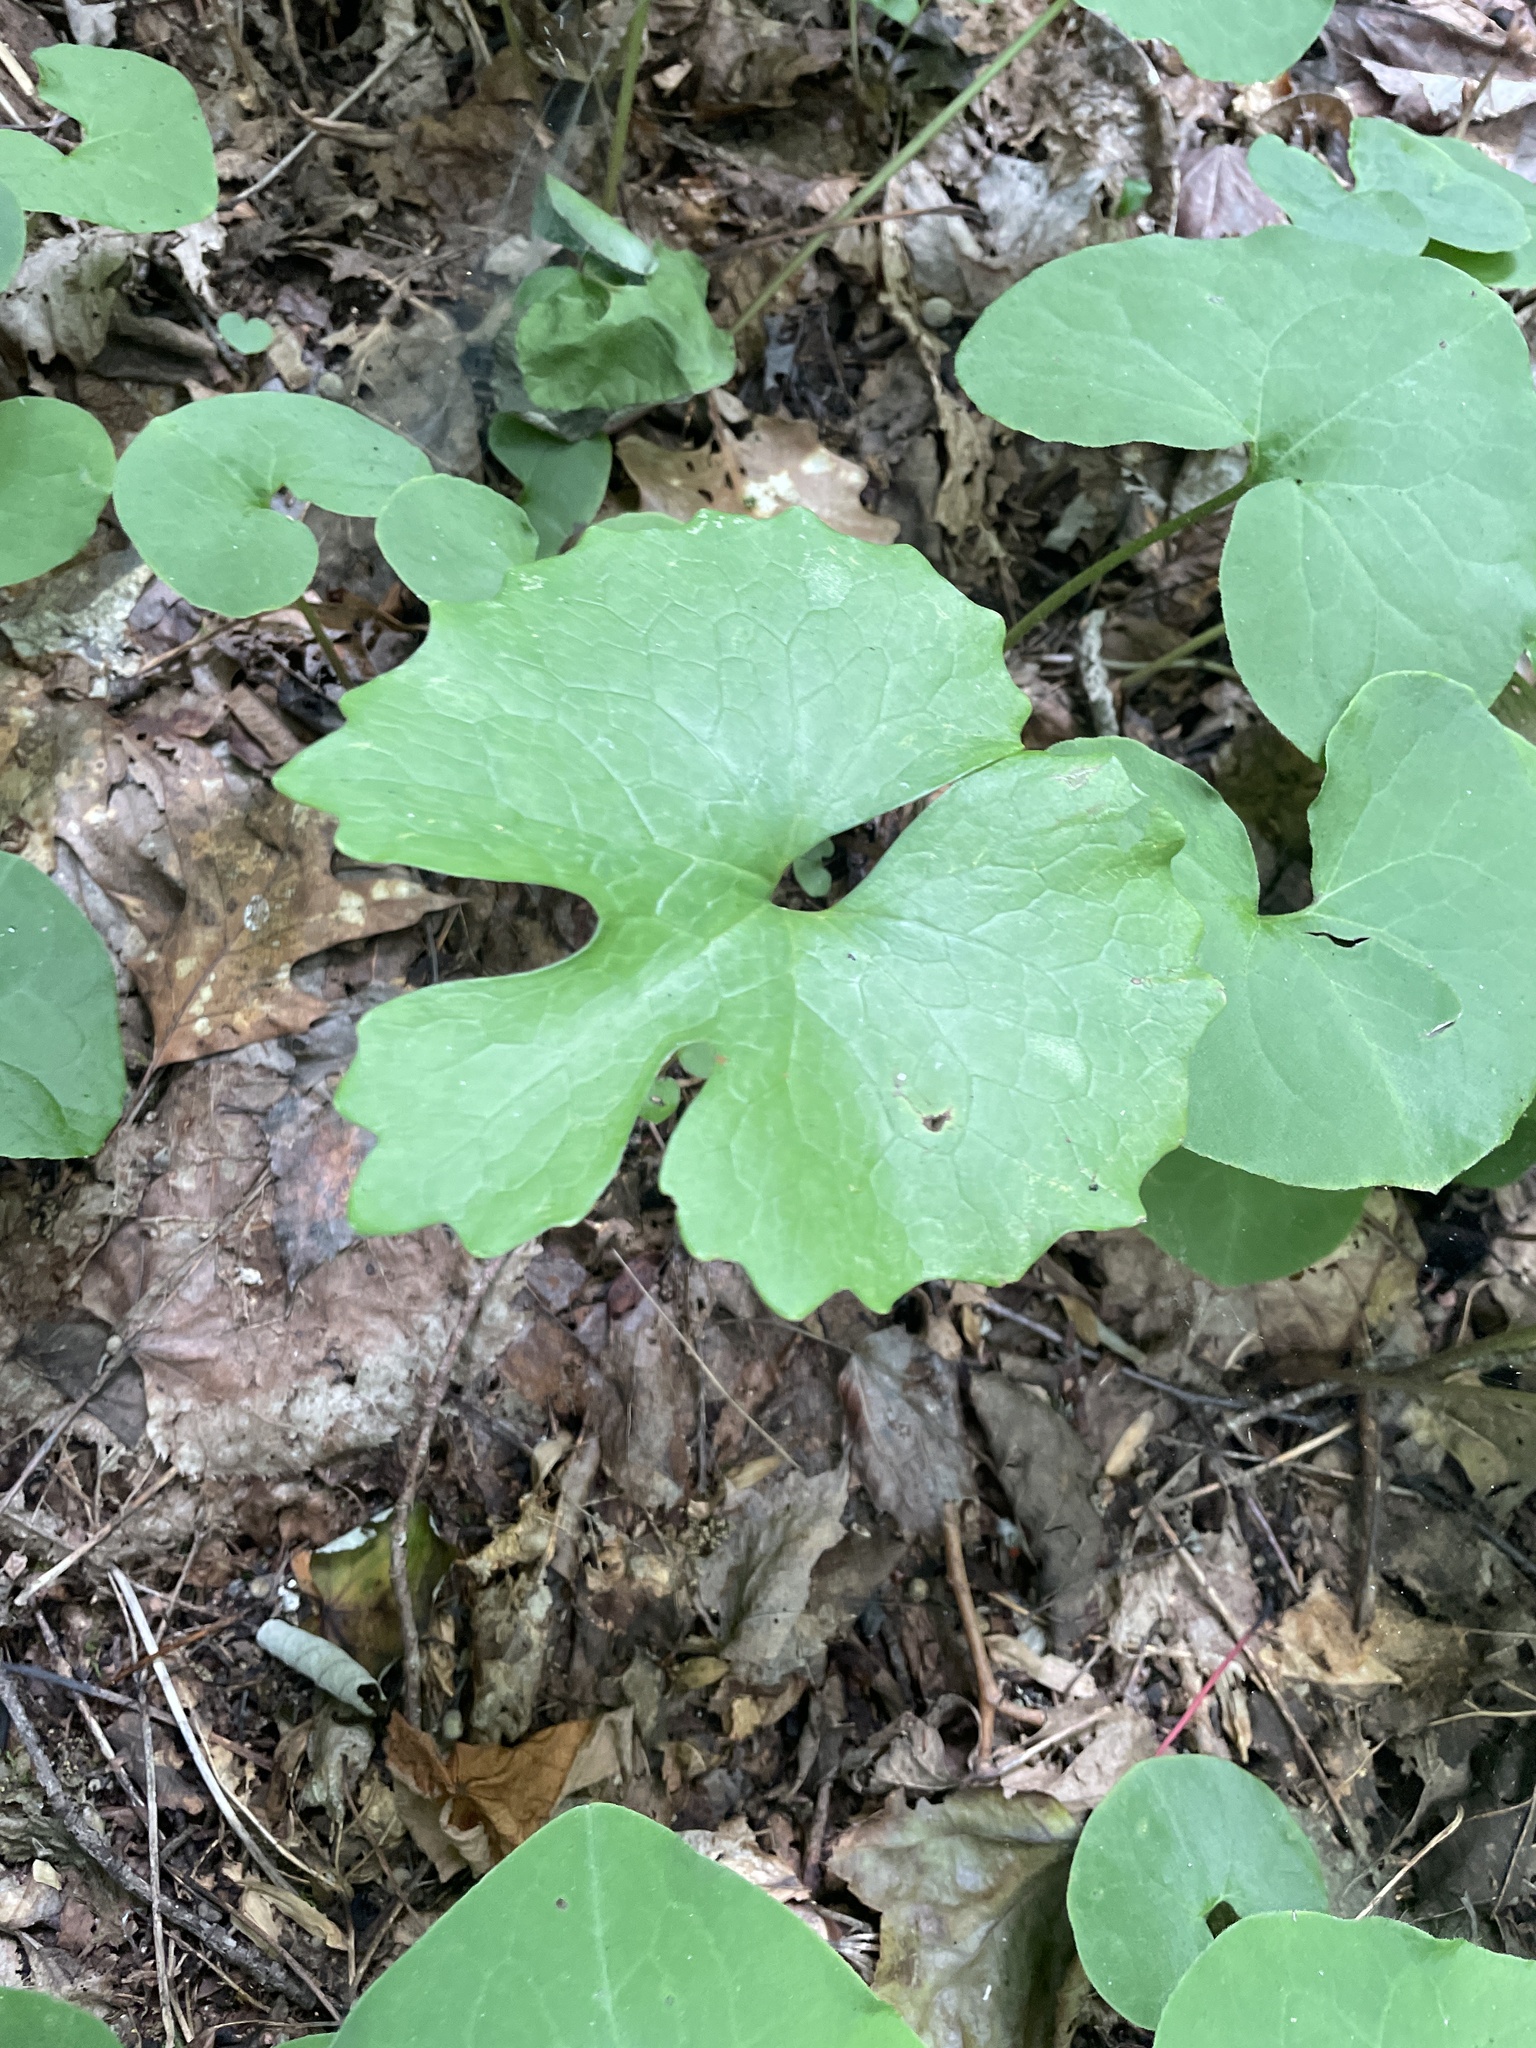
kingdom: Plantae
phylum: Tracheophyta
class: Magnoliopsida
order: Ranunculales
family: Papaveraceae
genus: Sanguinaria
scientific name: Sanguinaria canadensis
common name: Bloodroot
